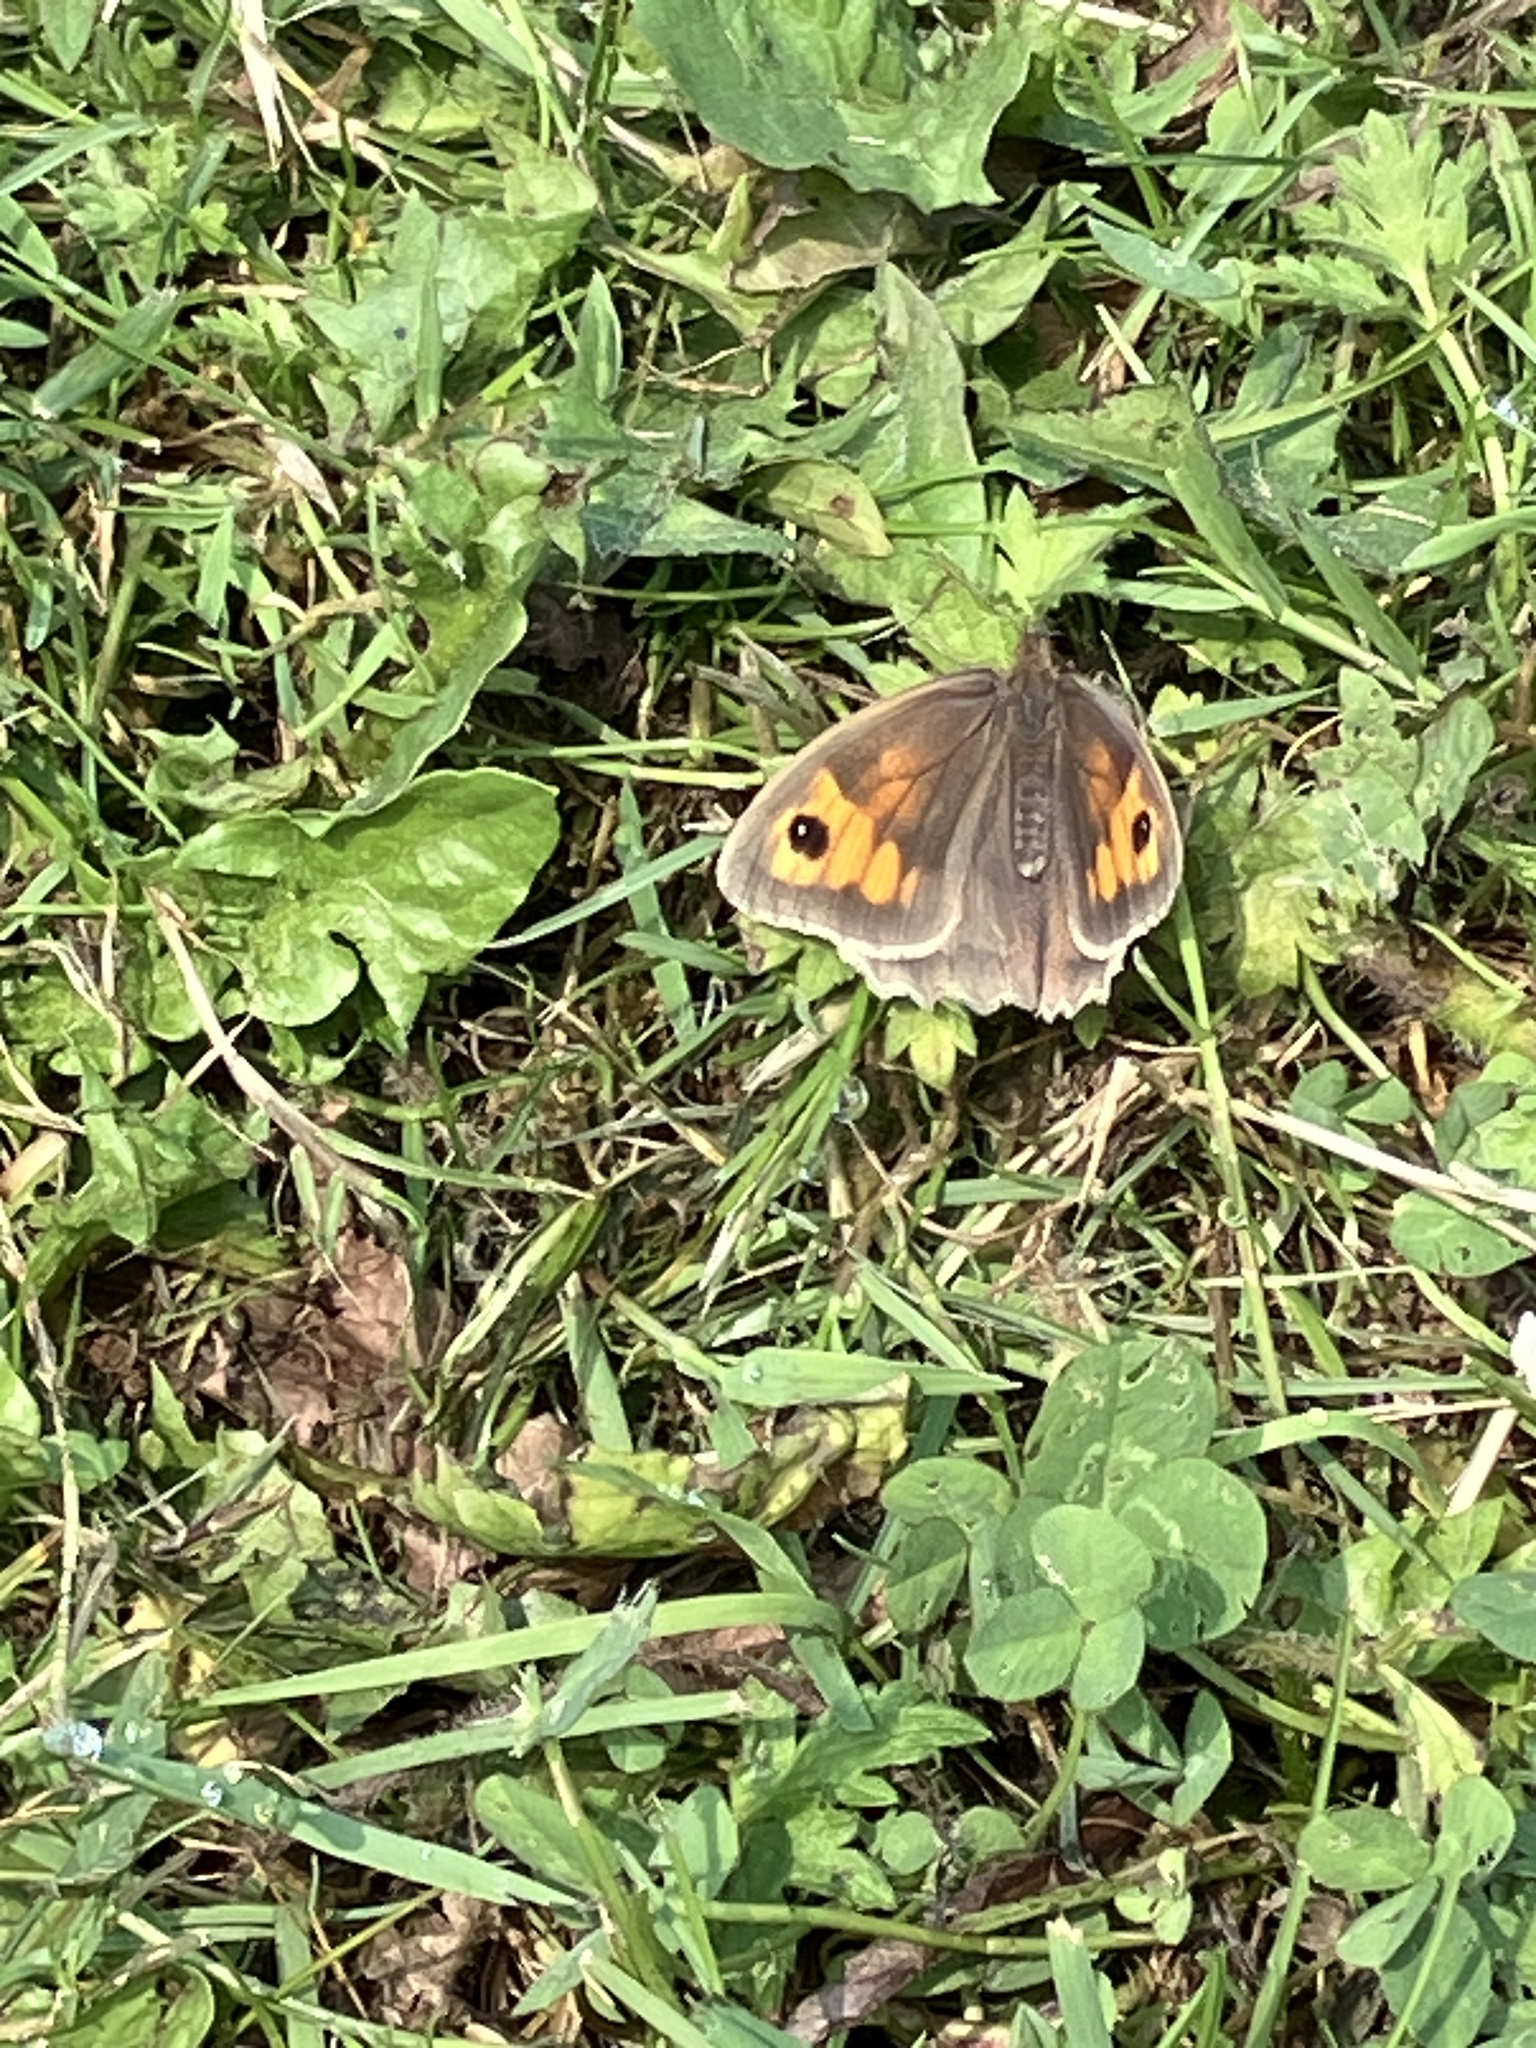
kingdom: Animalia
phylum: Arthropoda
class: Insecta
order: Lepidoptera
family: Nymphalidae
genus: Maniola
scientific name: Maniola jurtina
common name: Meadow brown
